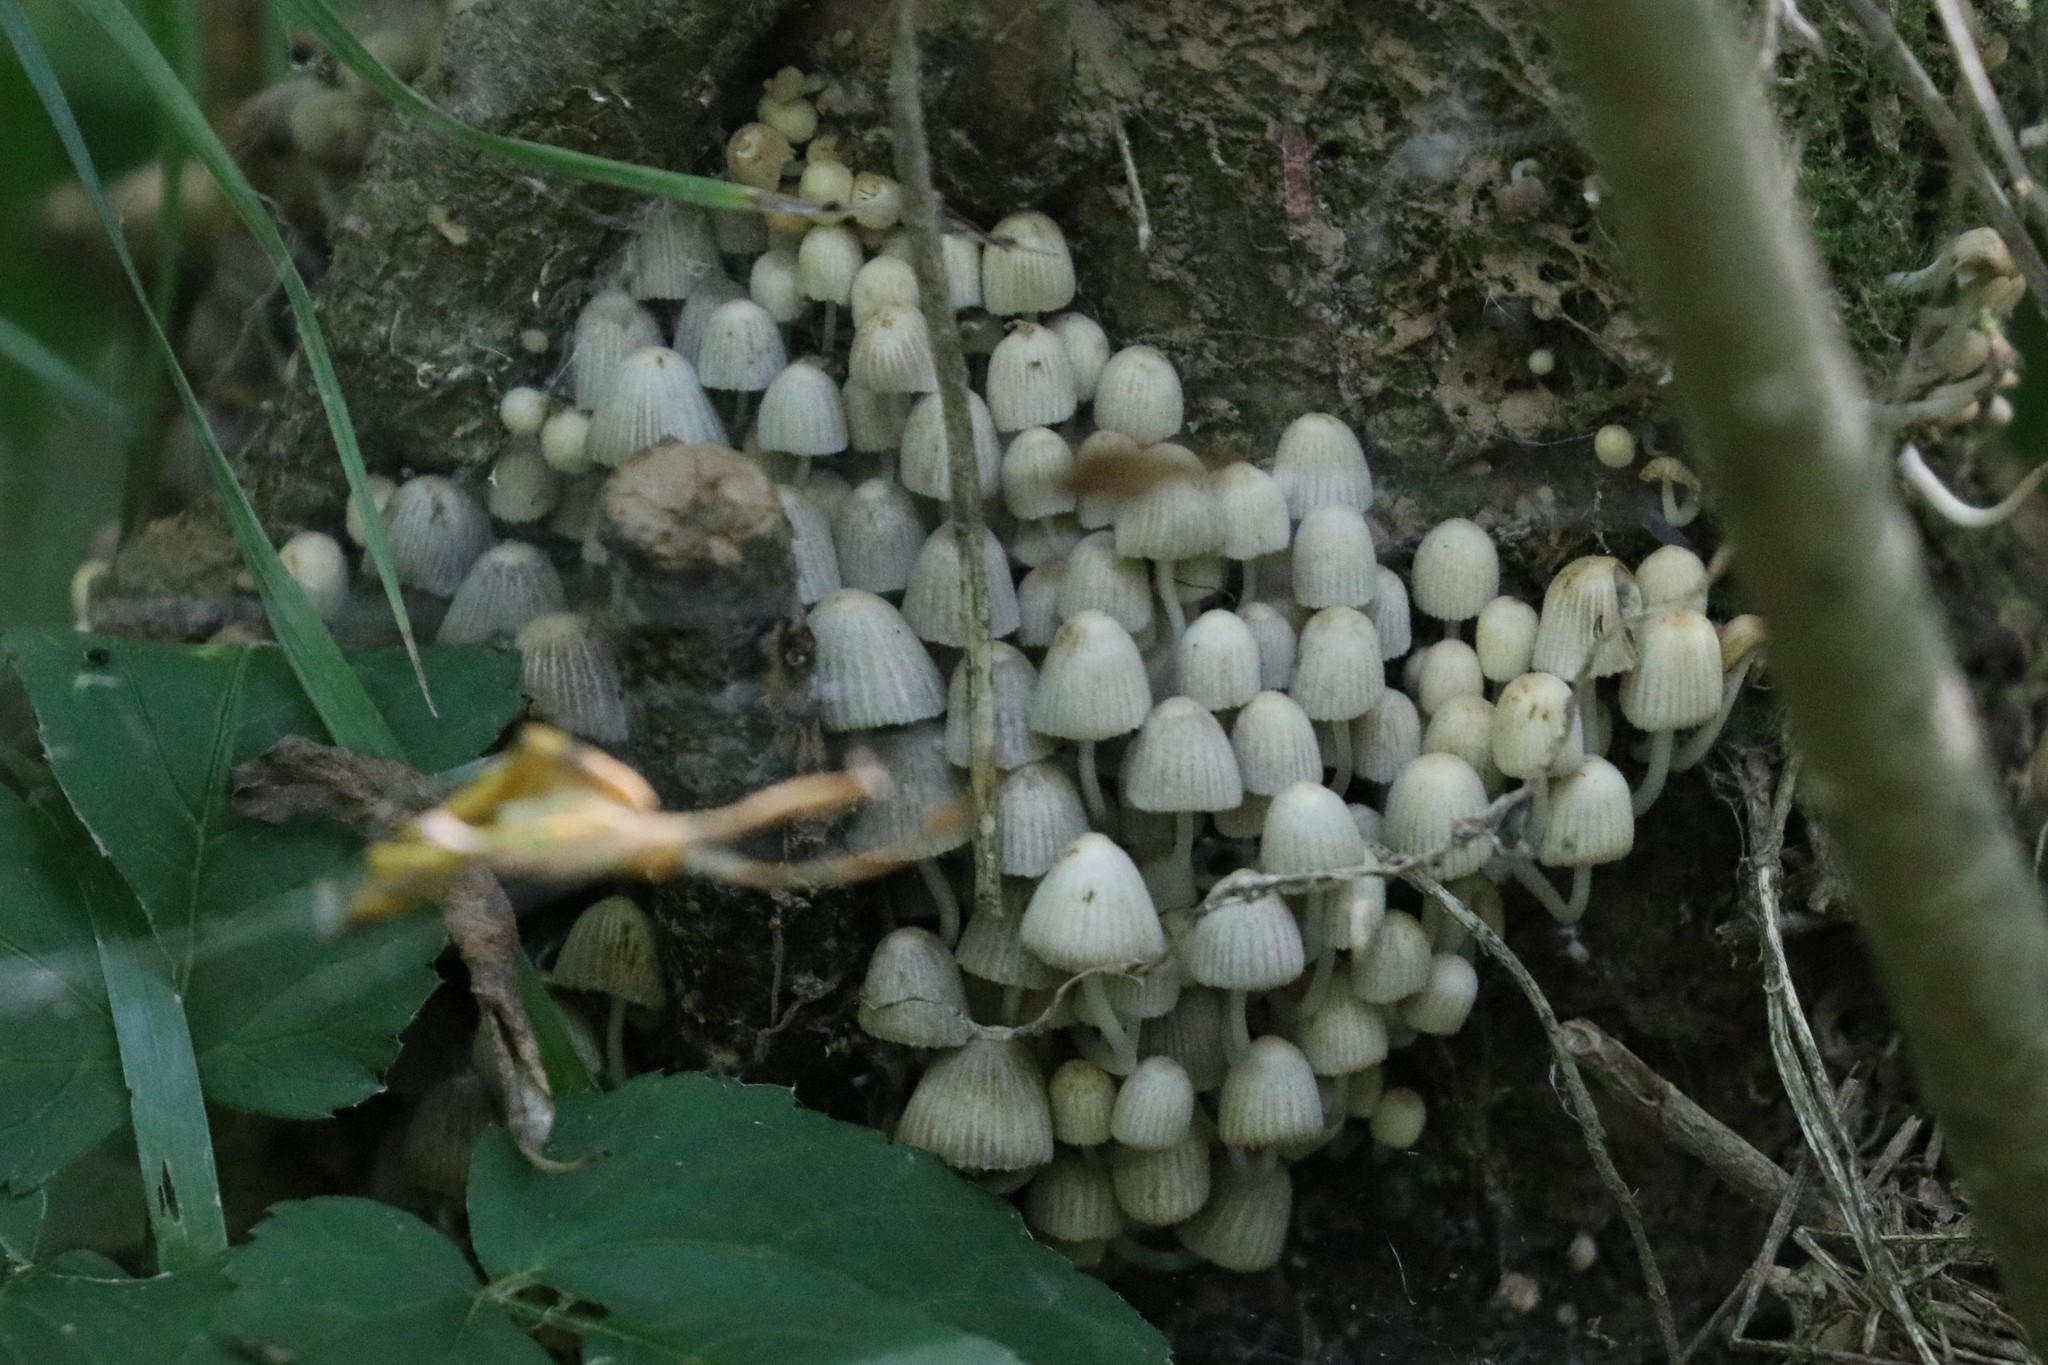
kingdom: Fungi
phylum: Basidiomycota
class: Agaricomycetes
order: Agaricales
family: Psathyrellaceae
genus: Coprinellus
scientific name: Coprinellus disseminatus
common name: Fairies' bonnets
